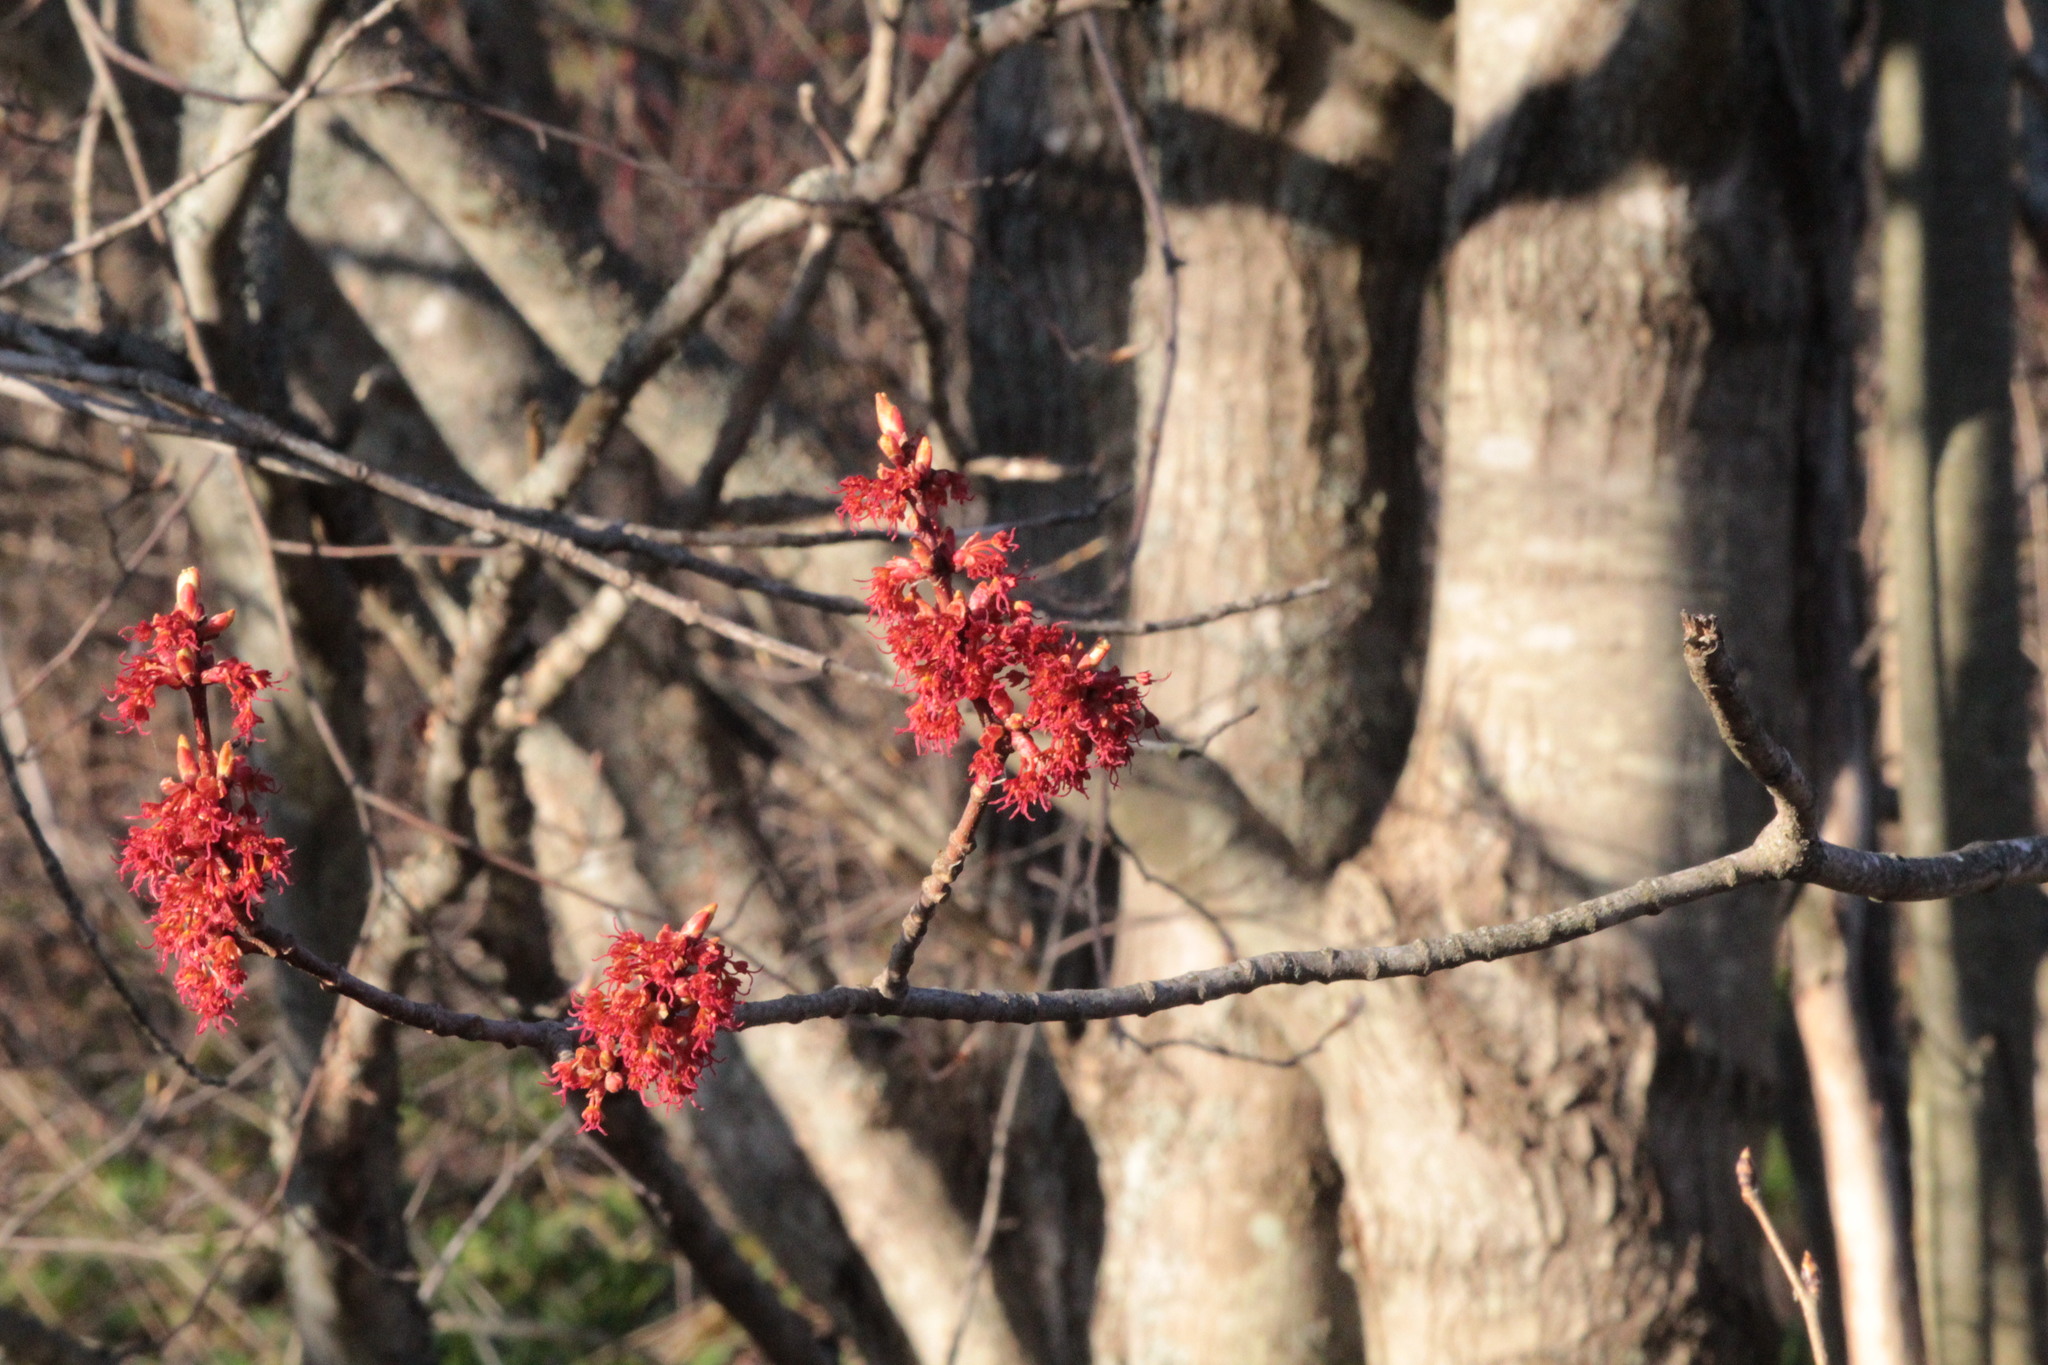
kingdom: Plantae
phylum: Tracheophyta
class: Magnoliopsida
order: Sapindales
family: Sapindaceae
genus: Acer
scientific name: Acer rubrum
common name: Red maple
